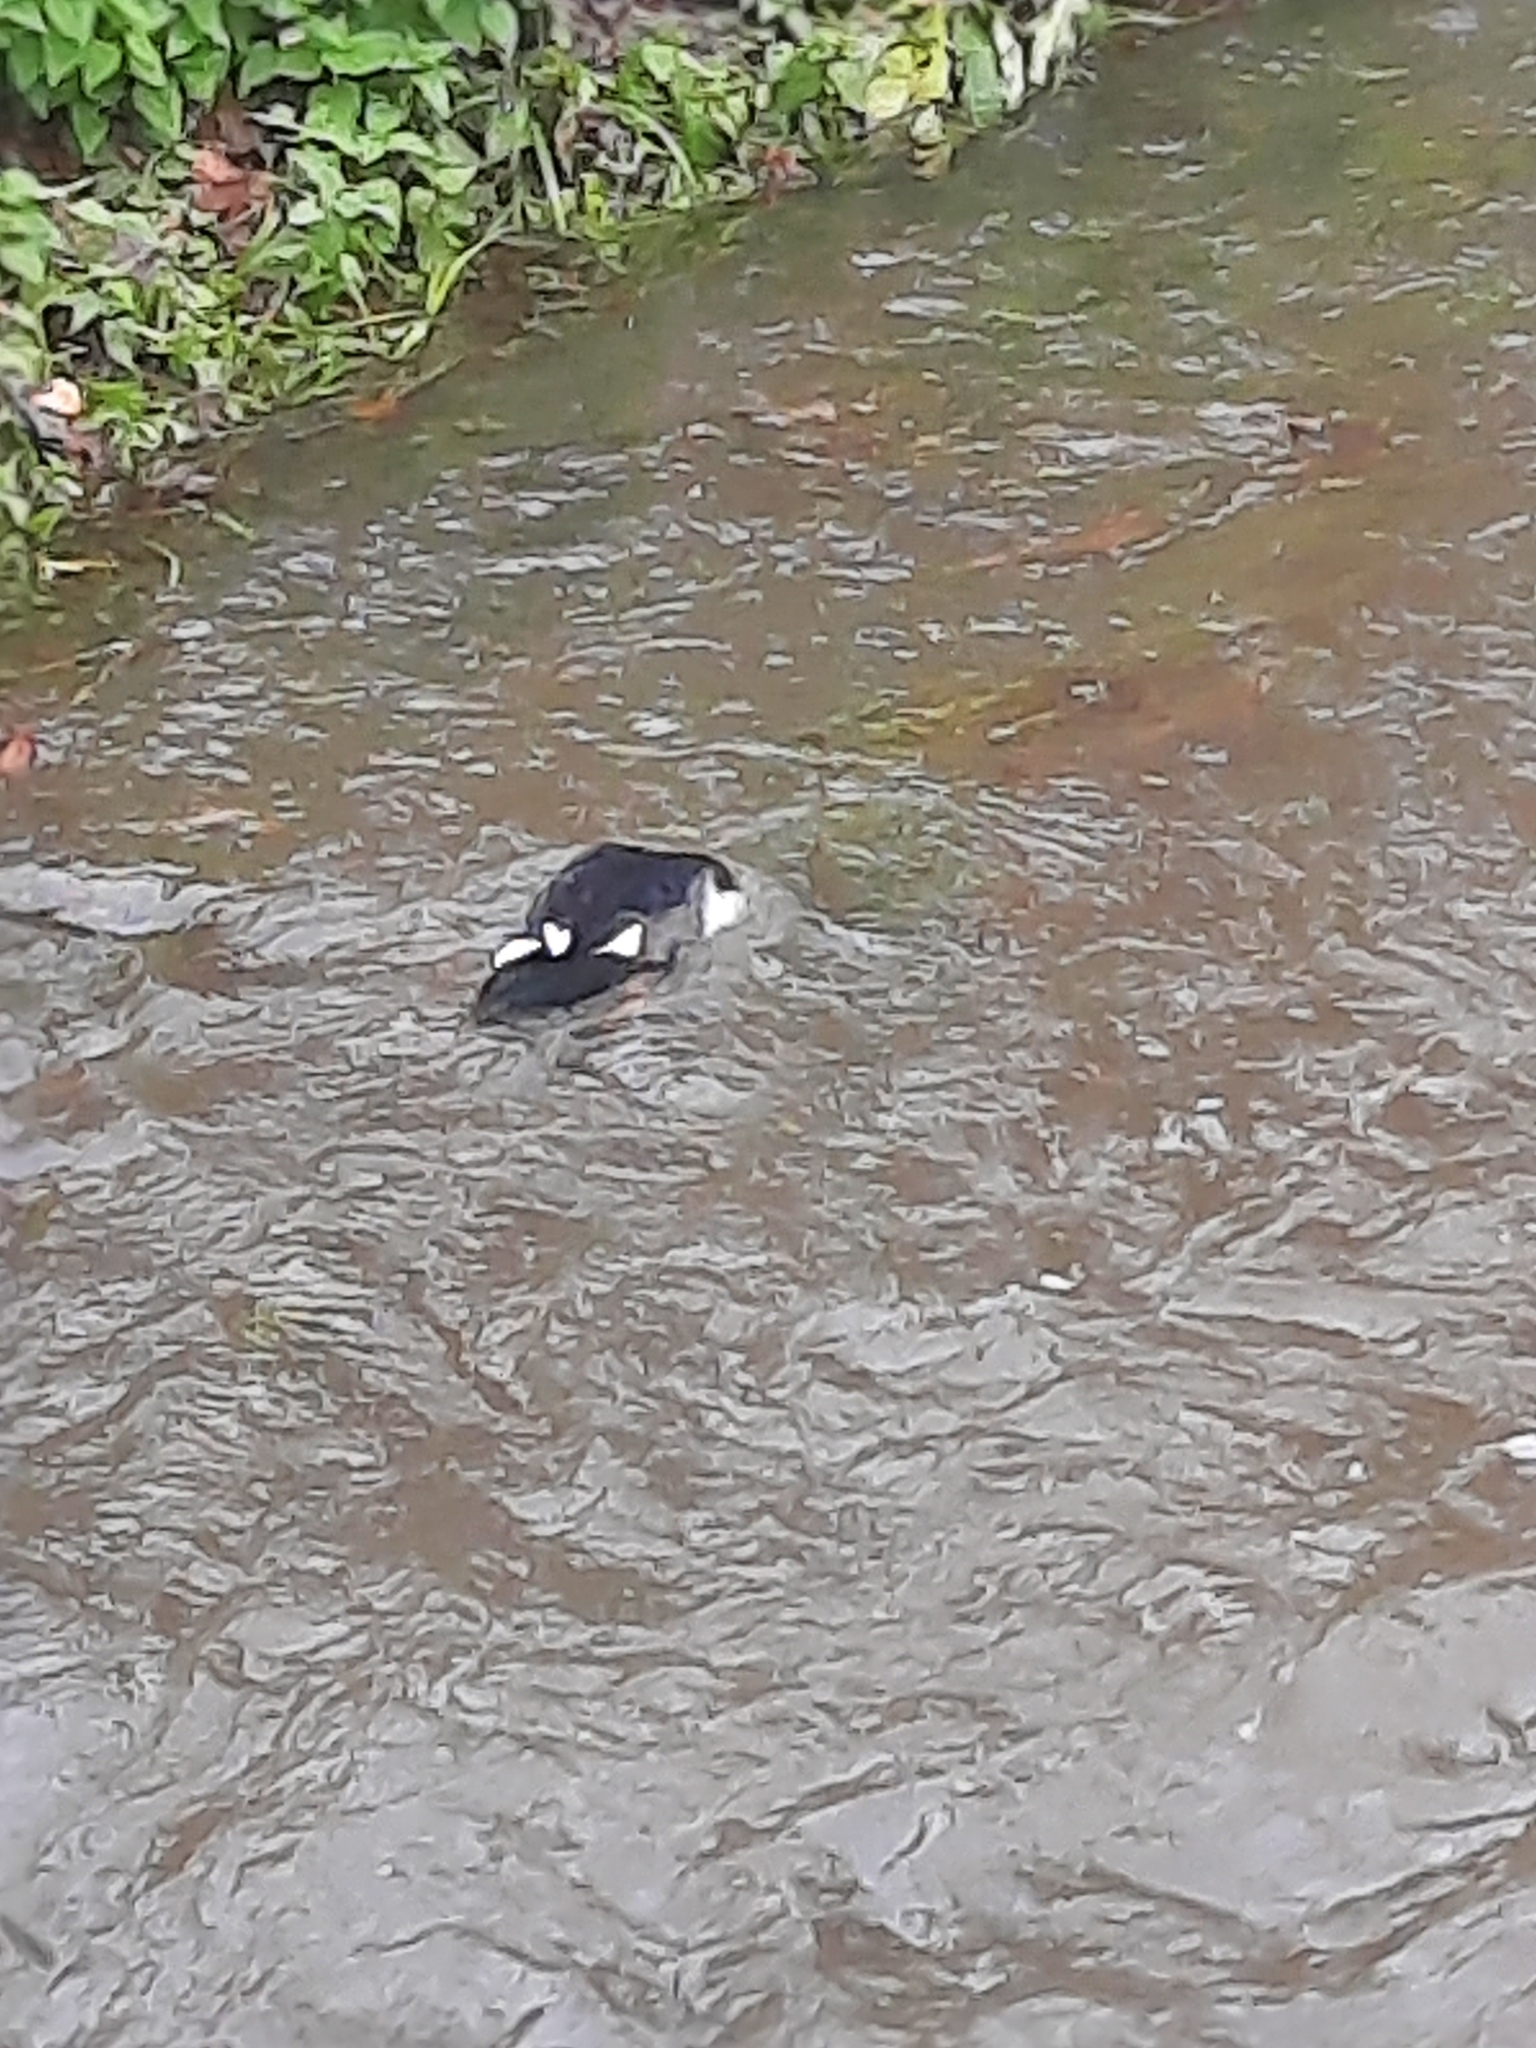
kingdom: Animalia
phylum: Chordata
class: Aves
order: Anseriformes
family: Anatidae
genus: Anas
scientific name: Anas platyrhynchos
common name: Mallard
